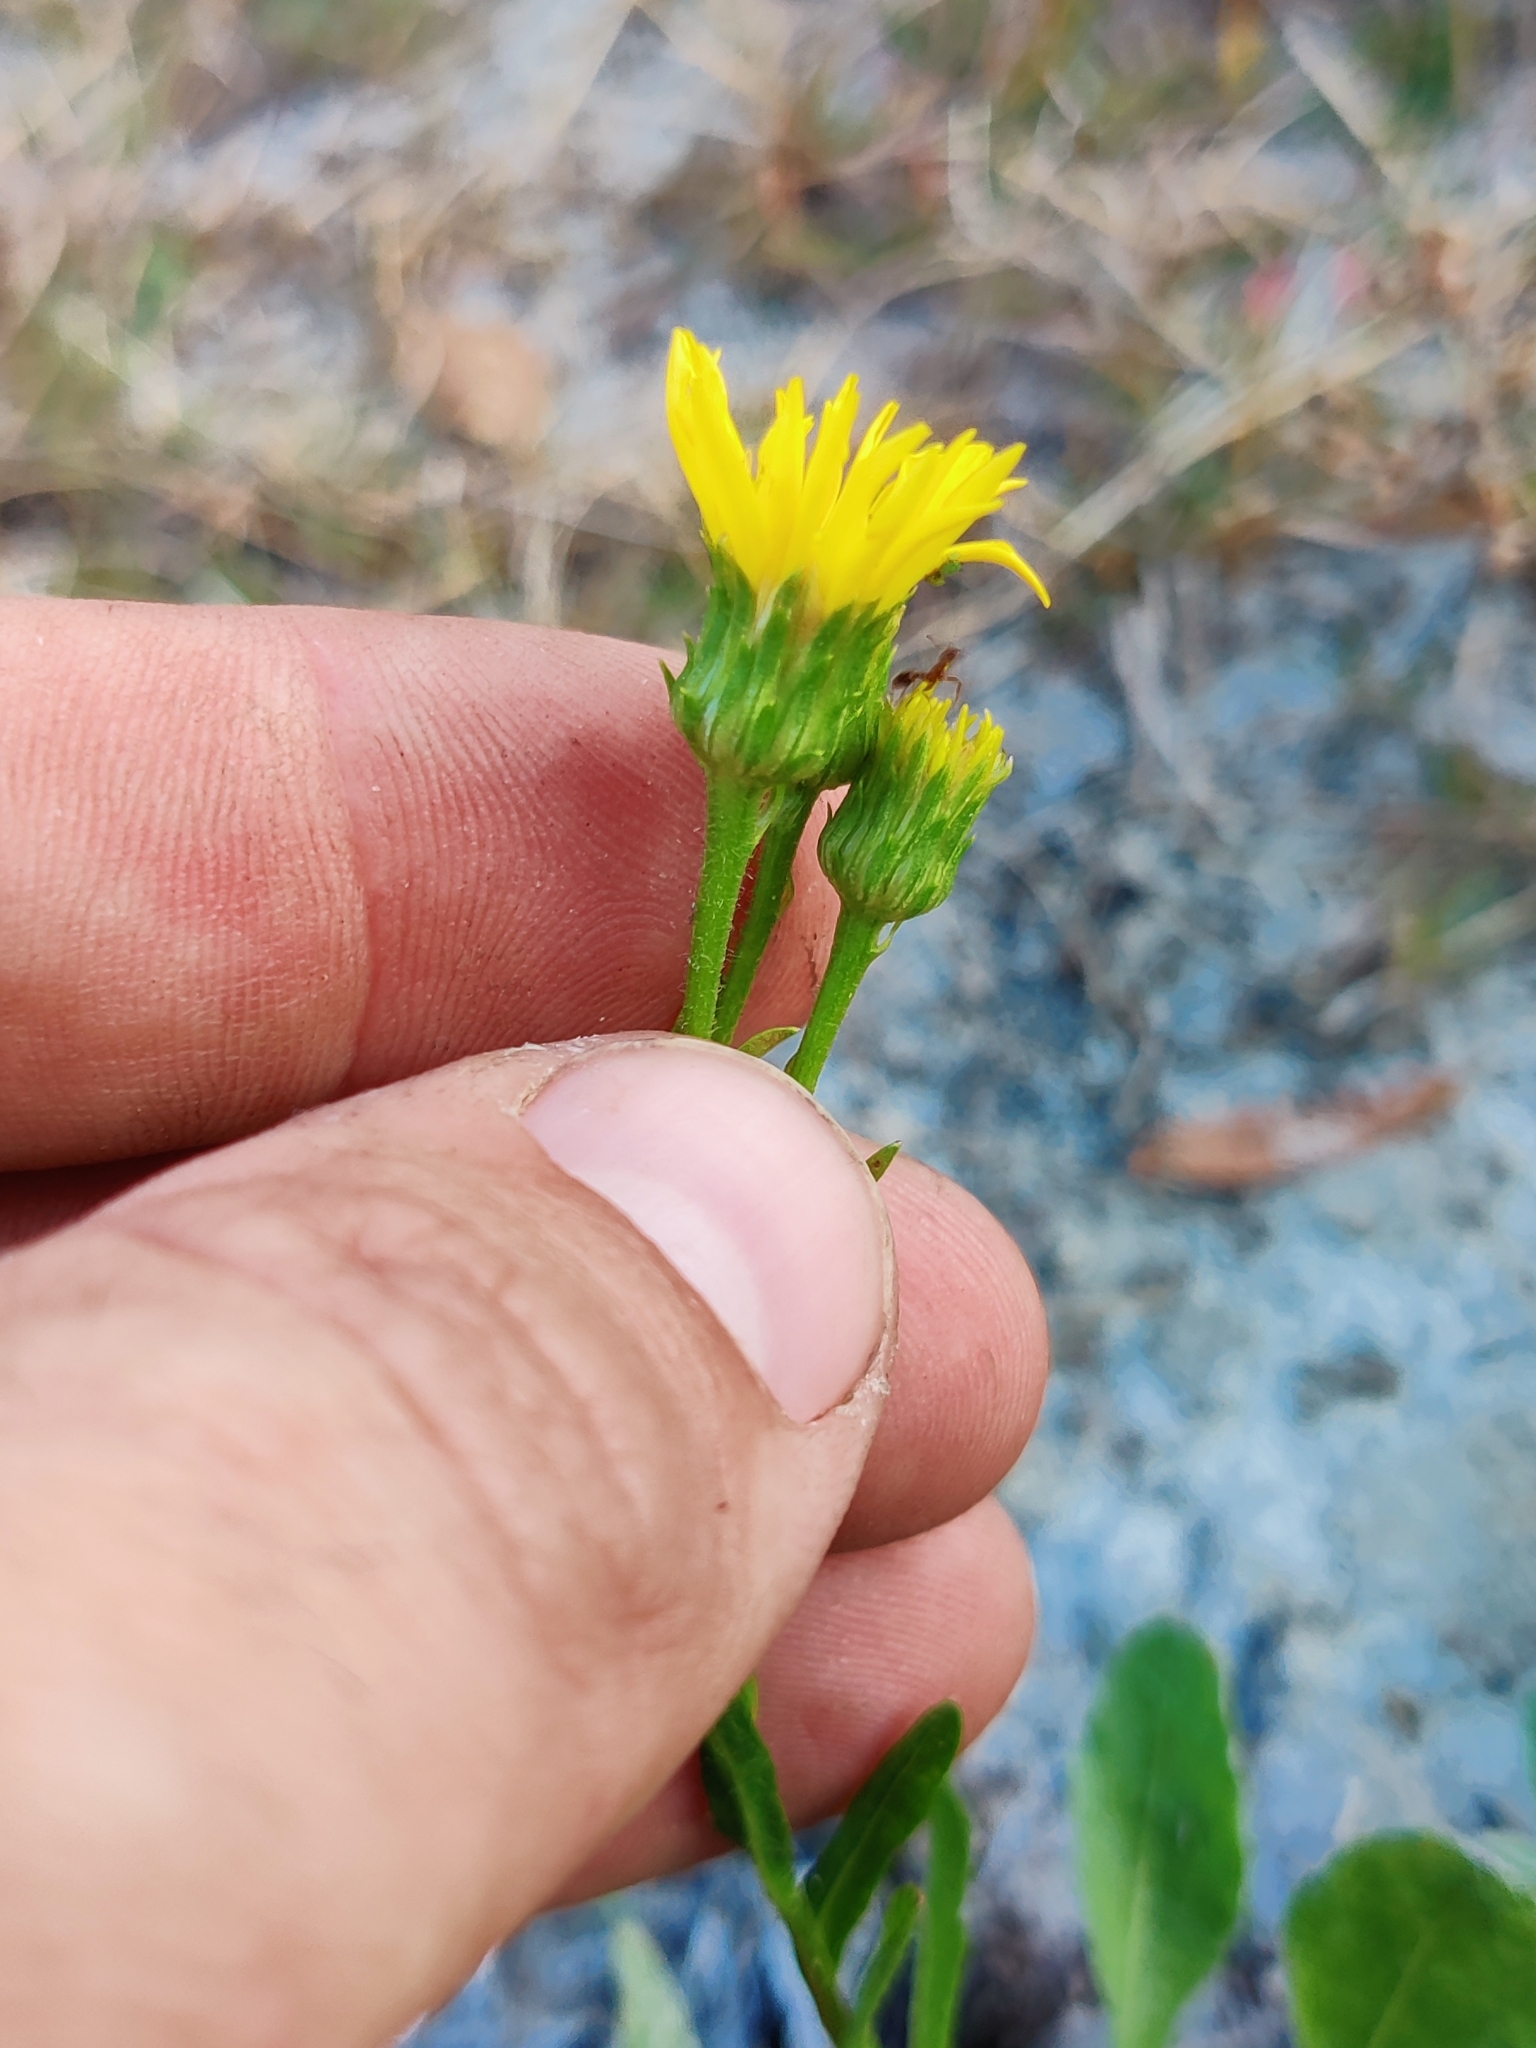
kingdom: Plantae
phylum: Tracheophyta
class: Magnoliopsida
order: Asterales
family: Asteraceae
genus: Chrysopsis
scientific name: Chrysopsis gossypina
